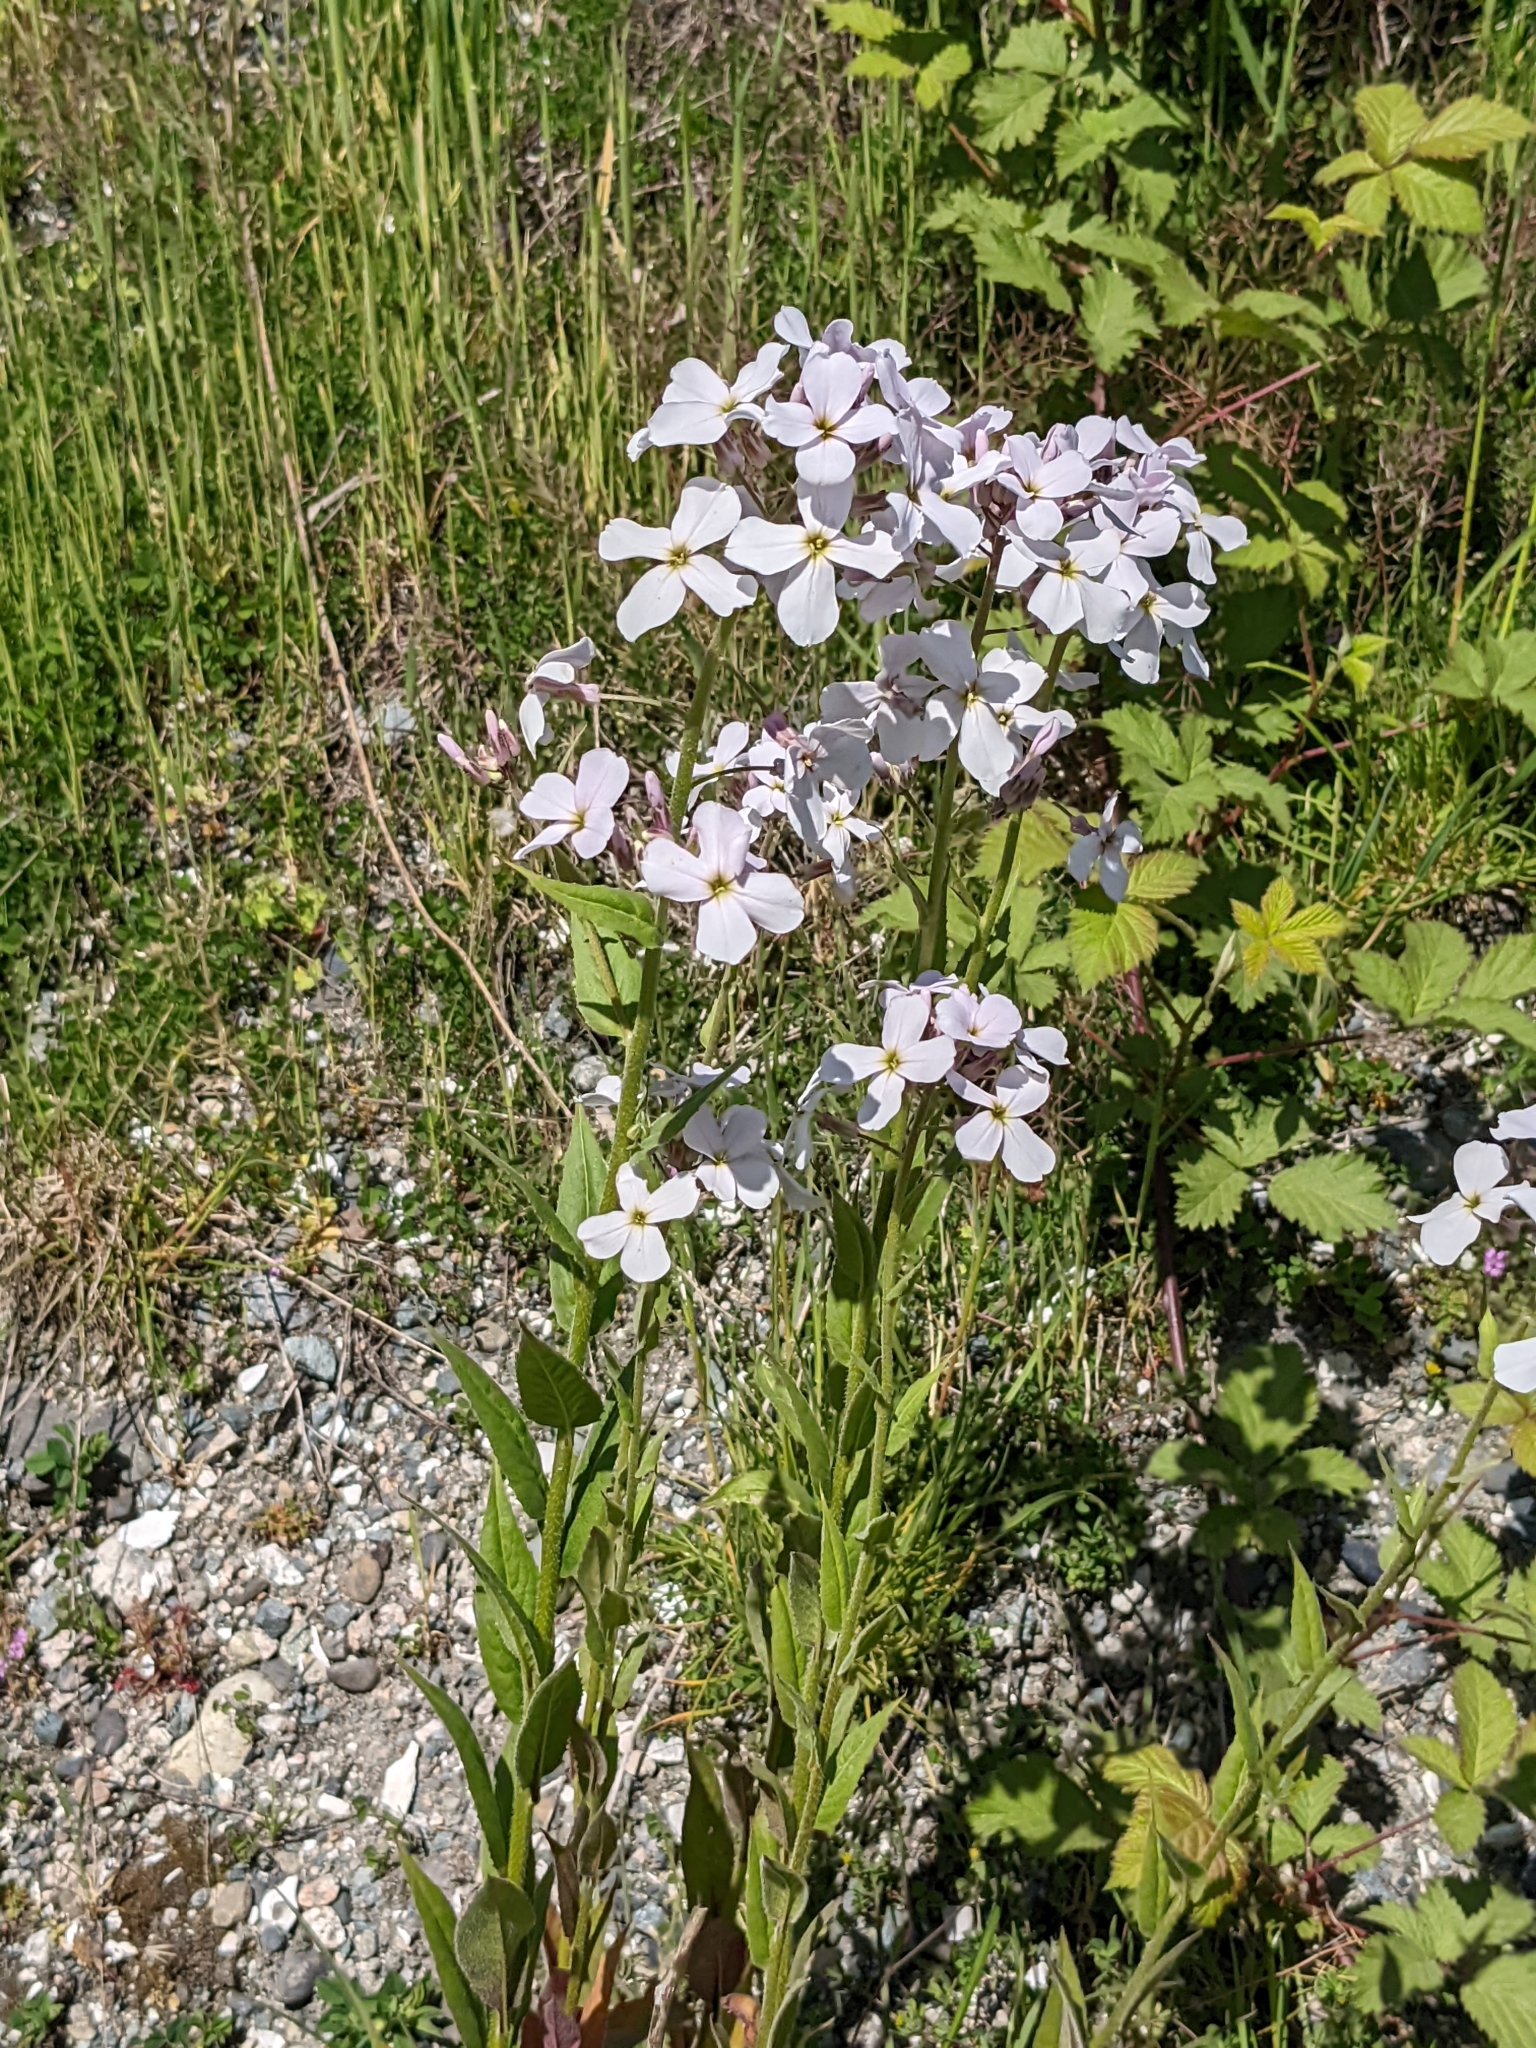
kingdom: Plantae
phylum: Tracheophyta
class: Magnoliopsida
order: Brassicales
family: Brassicaceae
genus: Hesperis
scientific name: Hesperis matronalis
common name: Dame's-violet
